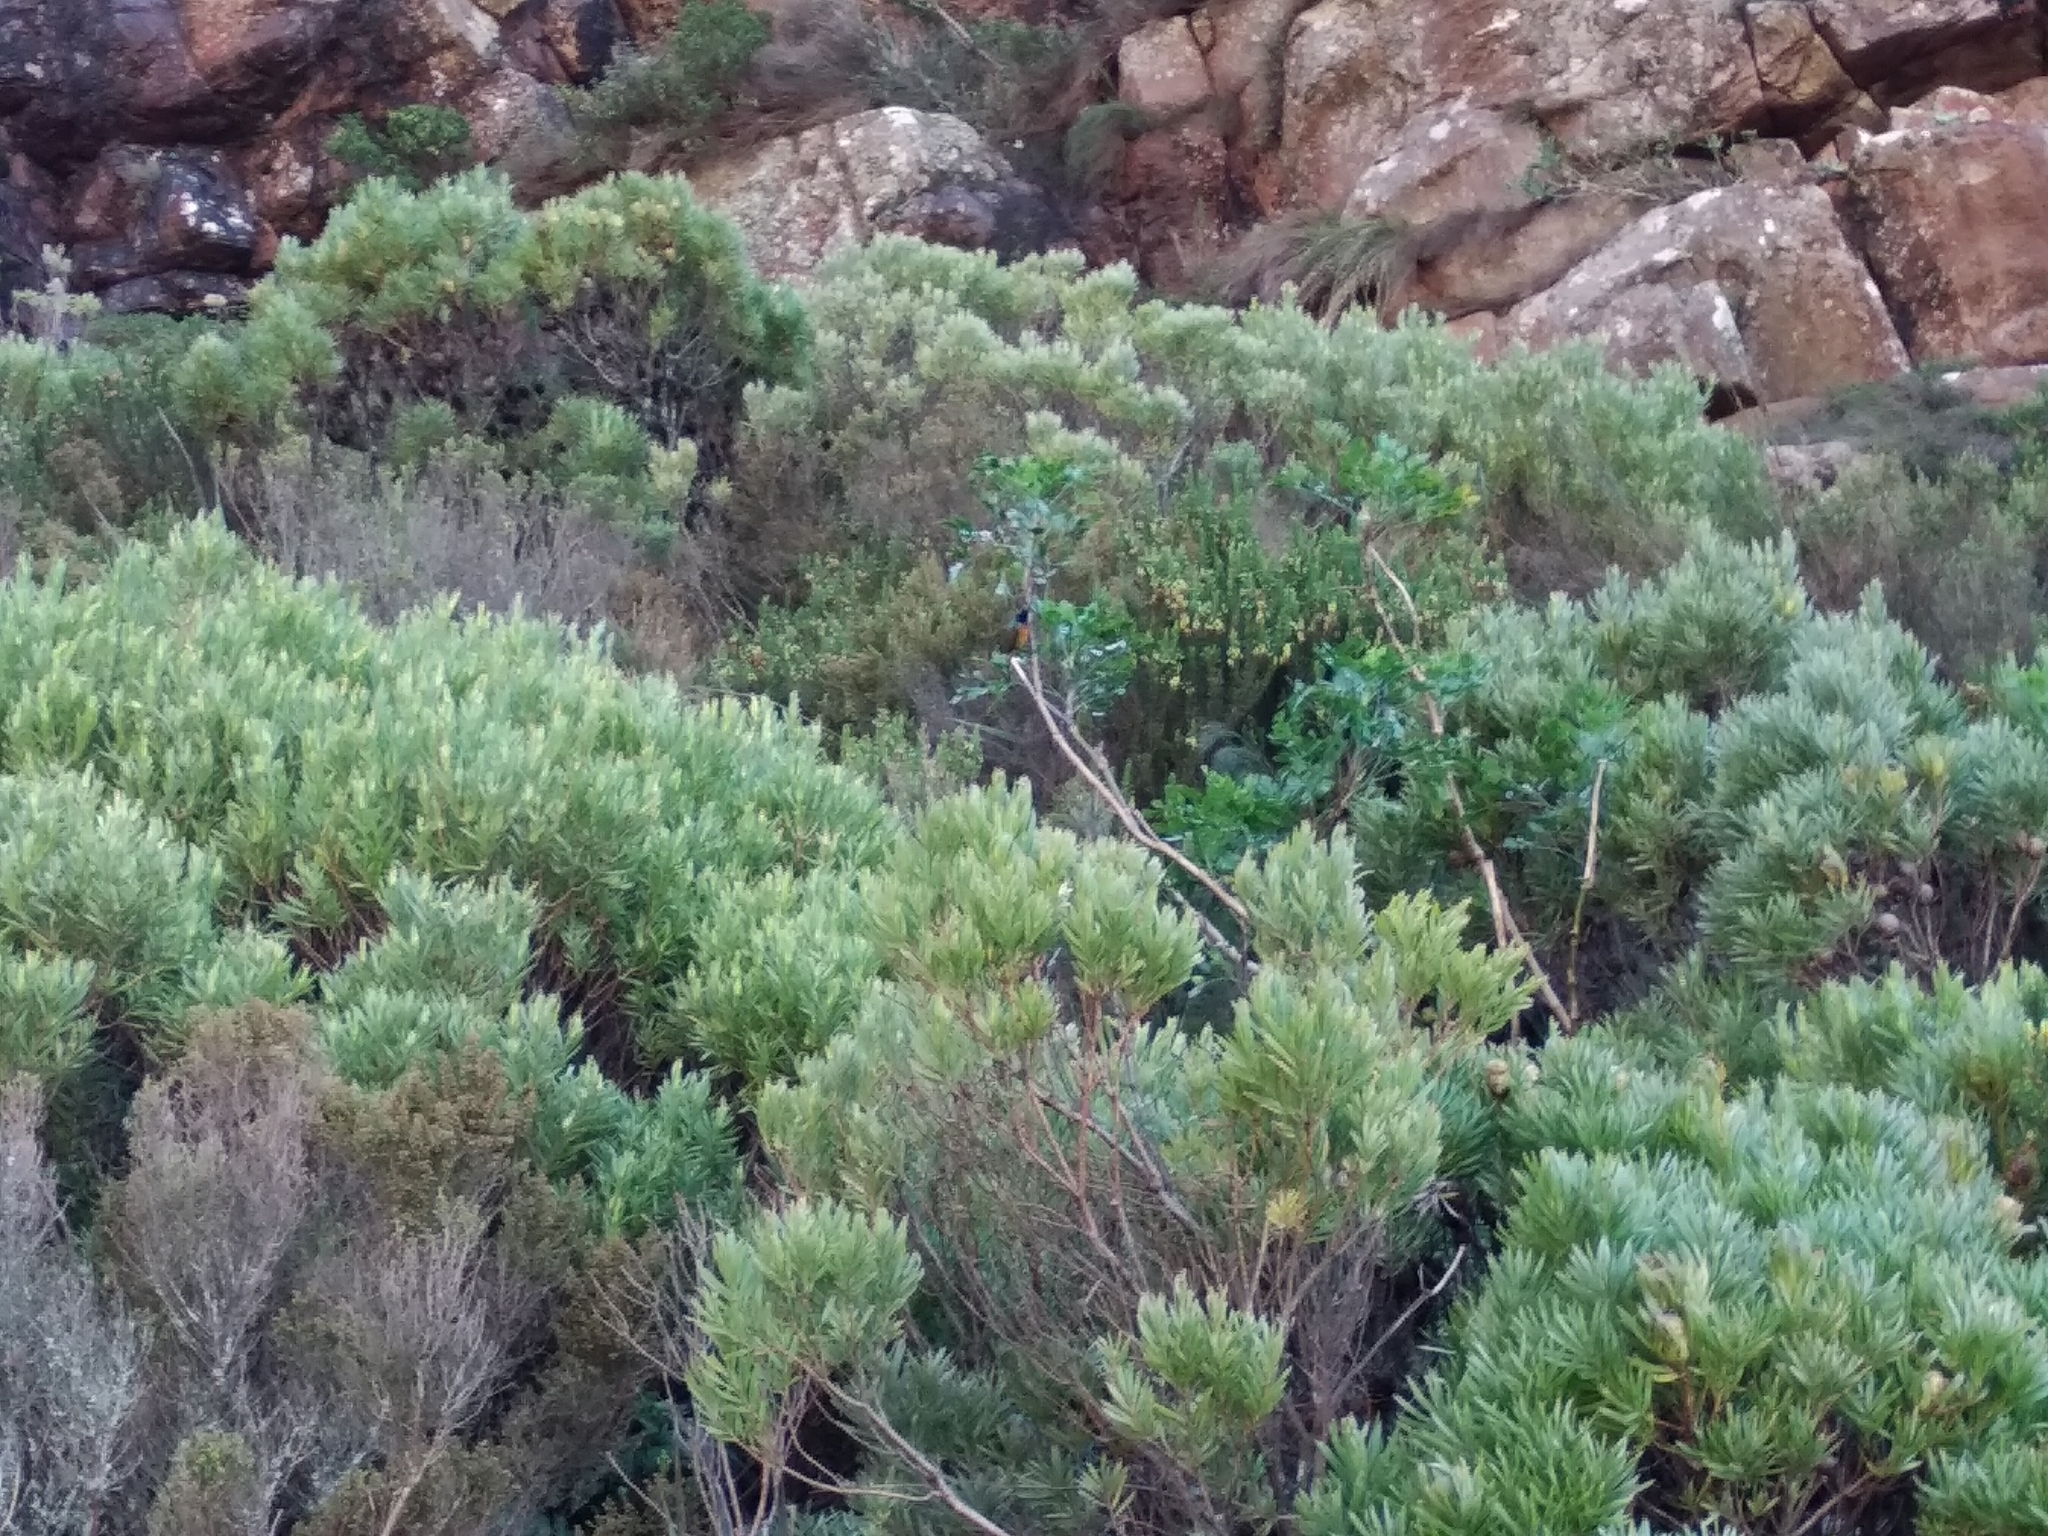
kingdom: Animalia
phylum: Chordata
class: Aves
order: Passeriformes
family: Nectariniidae
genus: Anthobaphes
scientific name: Anthobaphes violacea
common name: Orange-breasted sunbird
